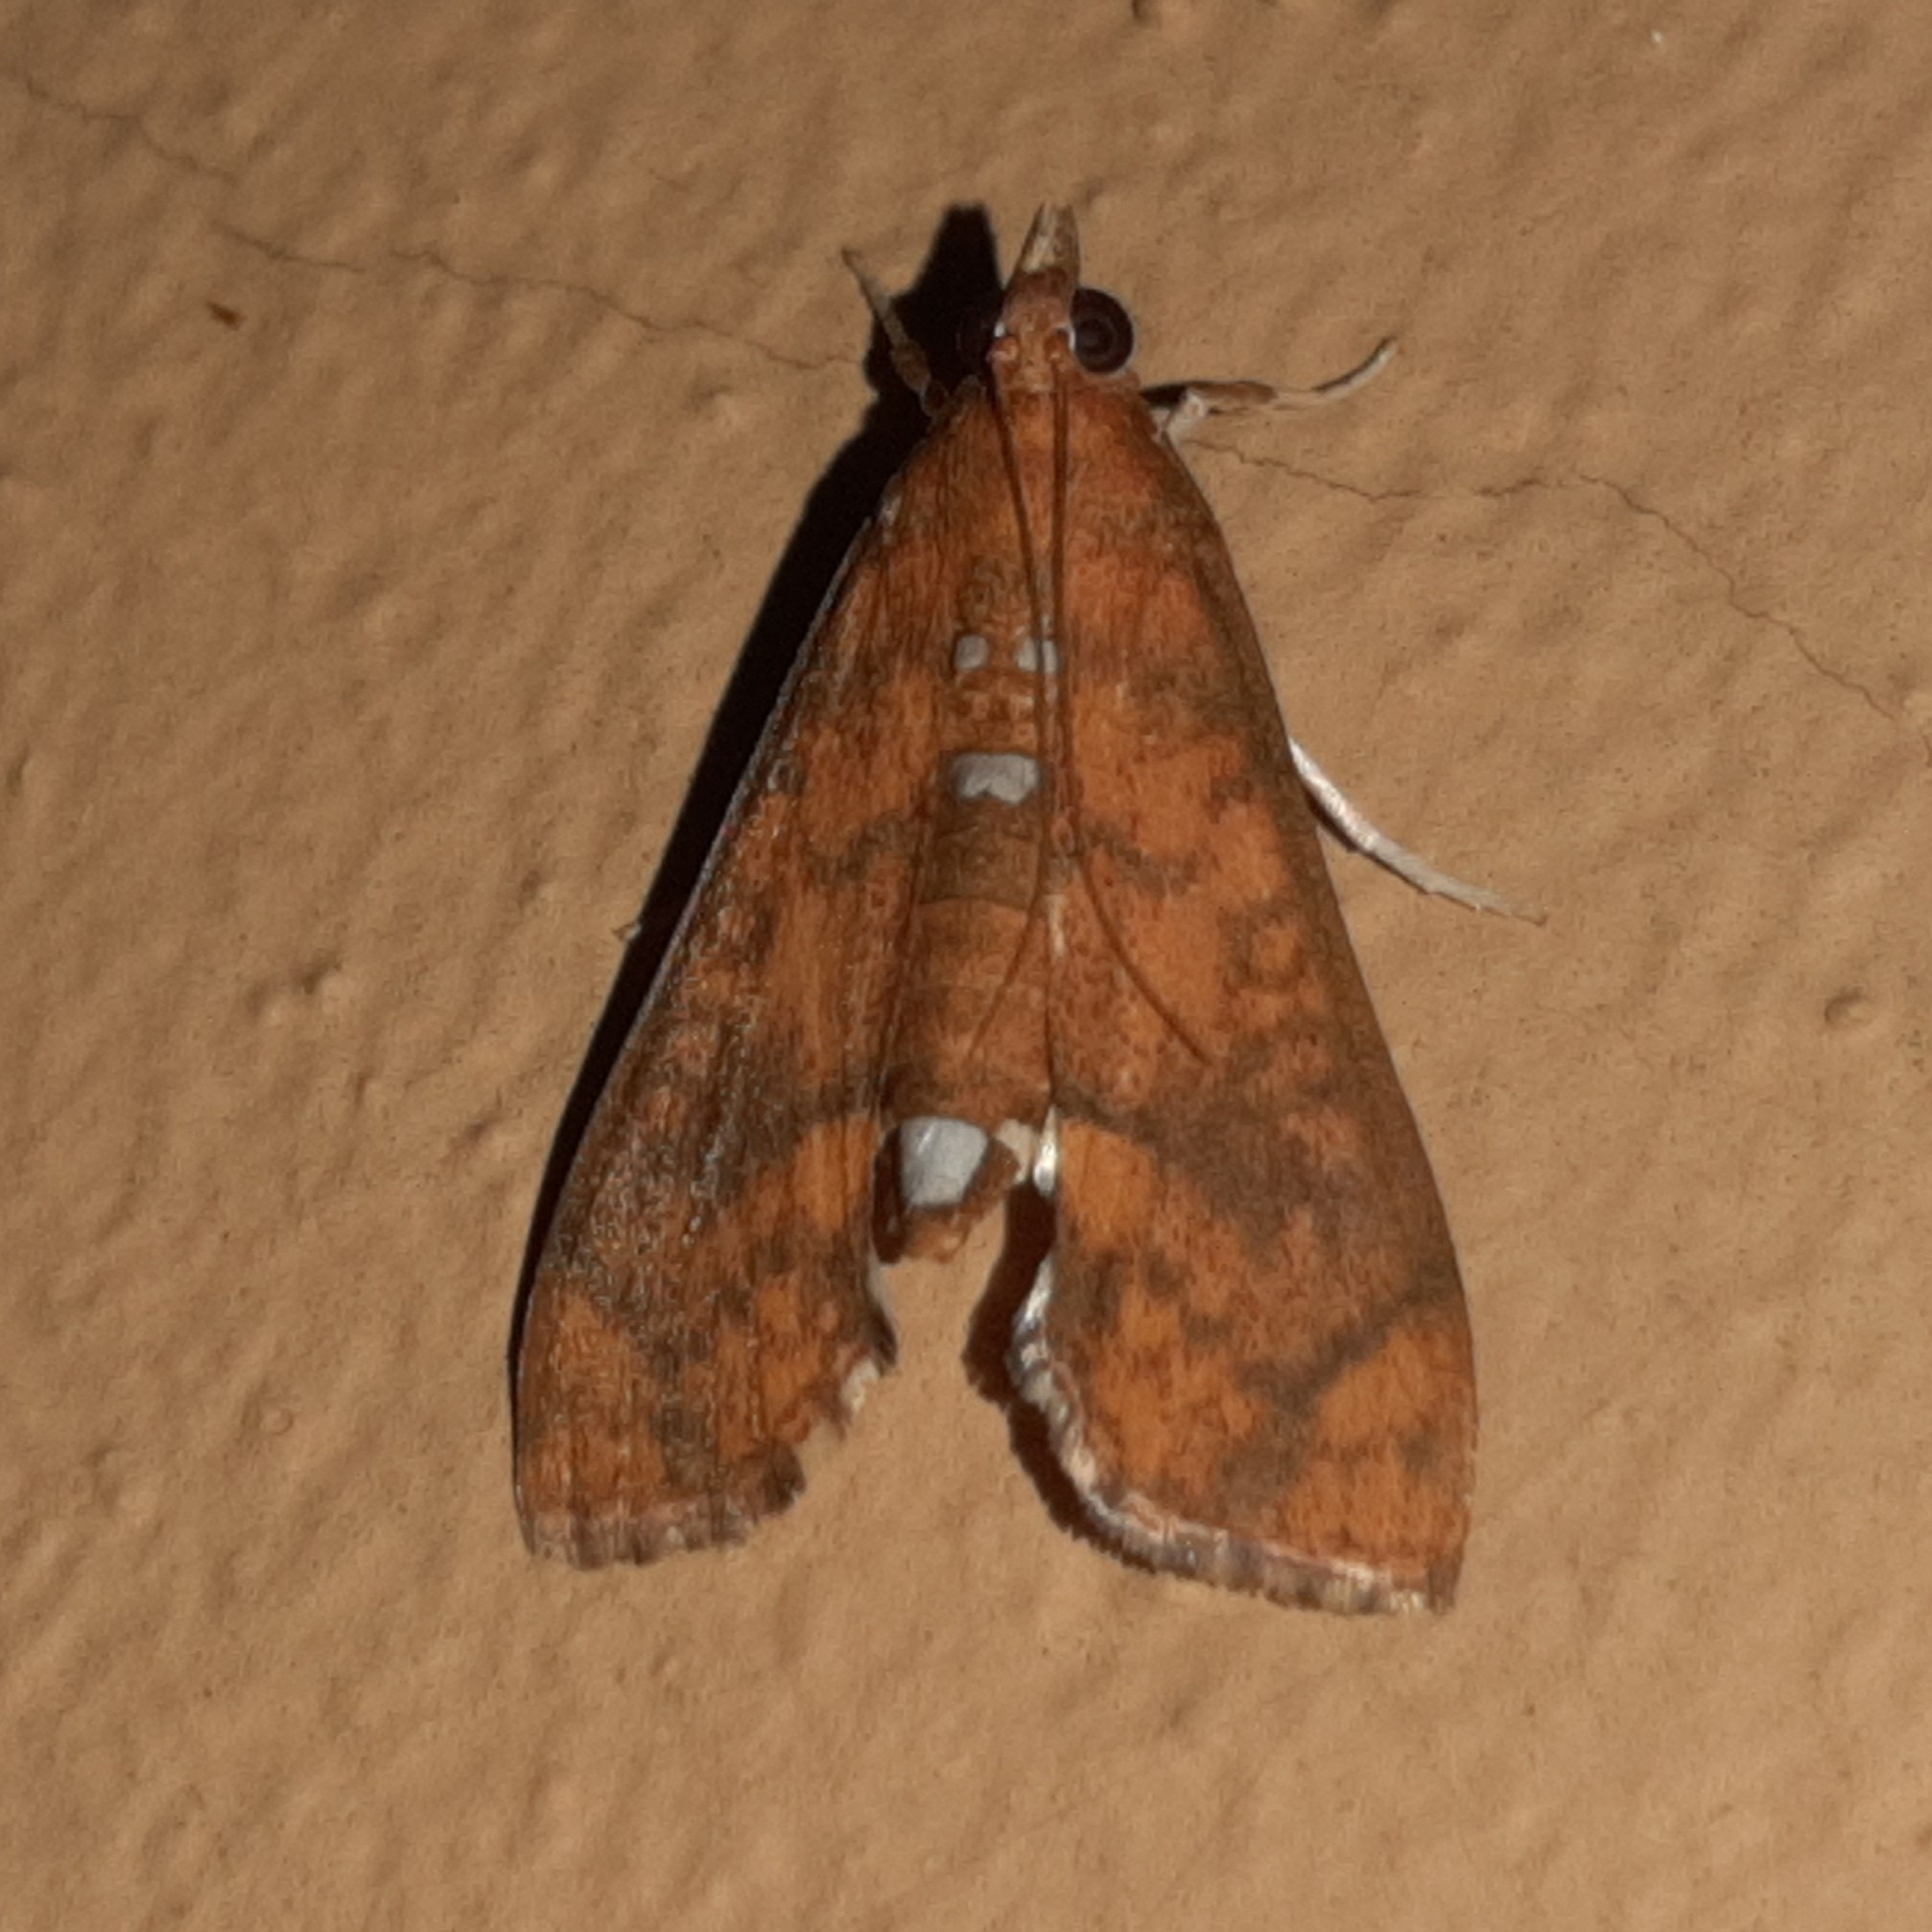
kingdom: Animalia
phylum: Arthropoda
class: Insecta
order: Lepidoptera
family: Crambidae
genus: Liopasia
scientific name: Liopasia ochracealis
